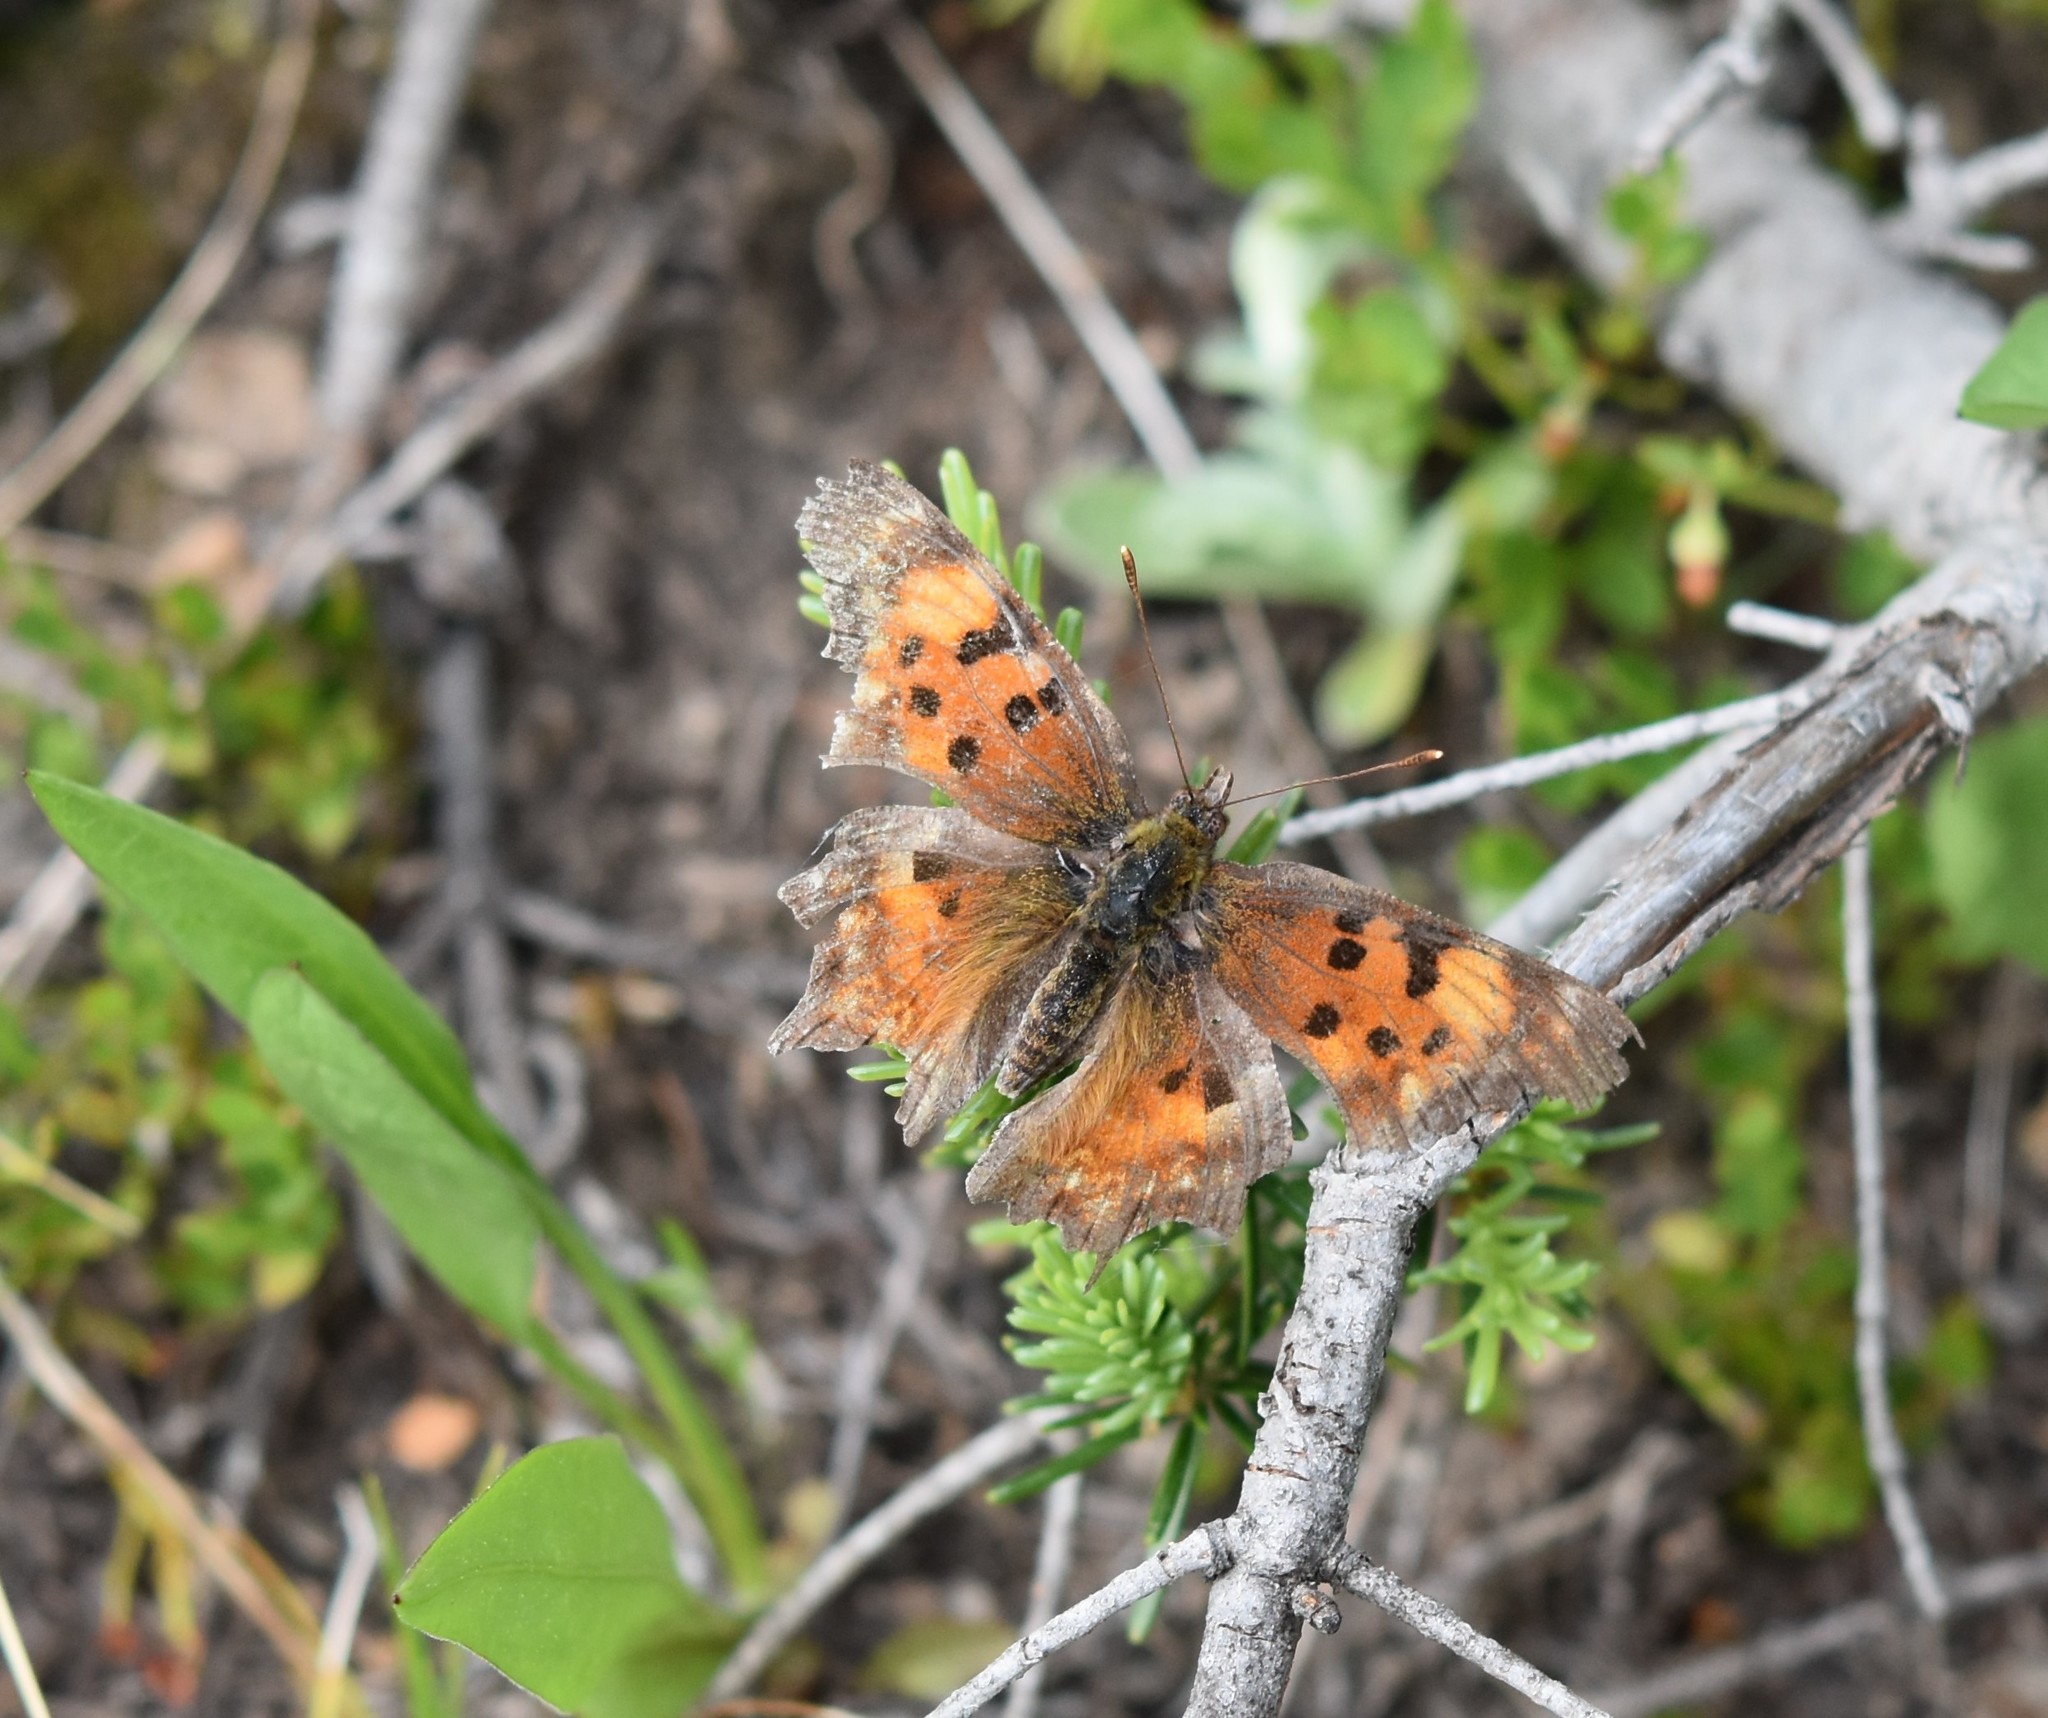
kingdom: Animalia
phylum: Arthropoda
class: Insecta
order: Lepidoptera
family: Nymphalidae
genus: Polygonia
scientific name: Polygonia gracilis
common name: Hoary comma
